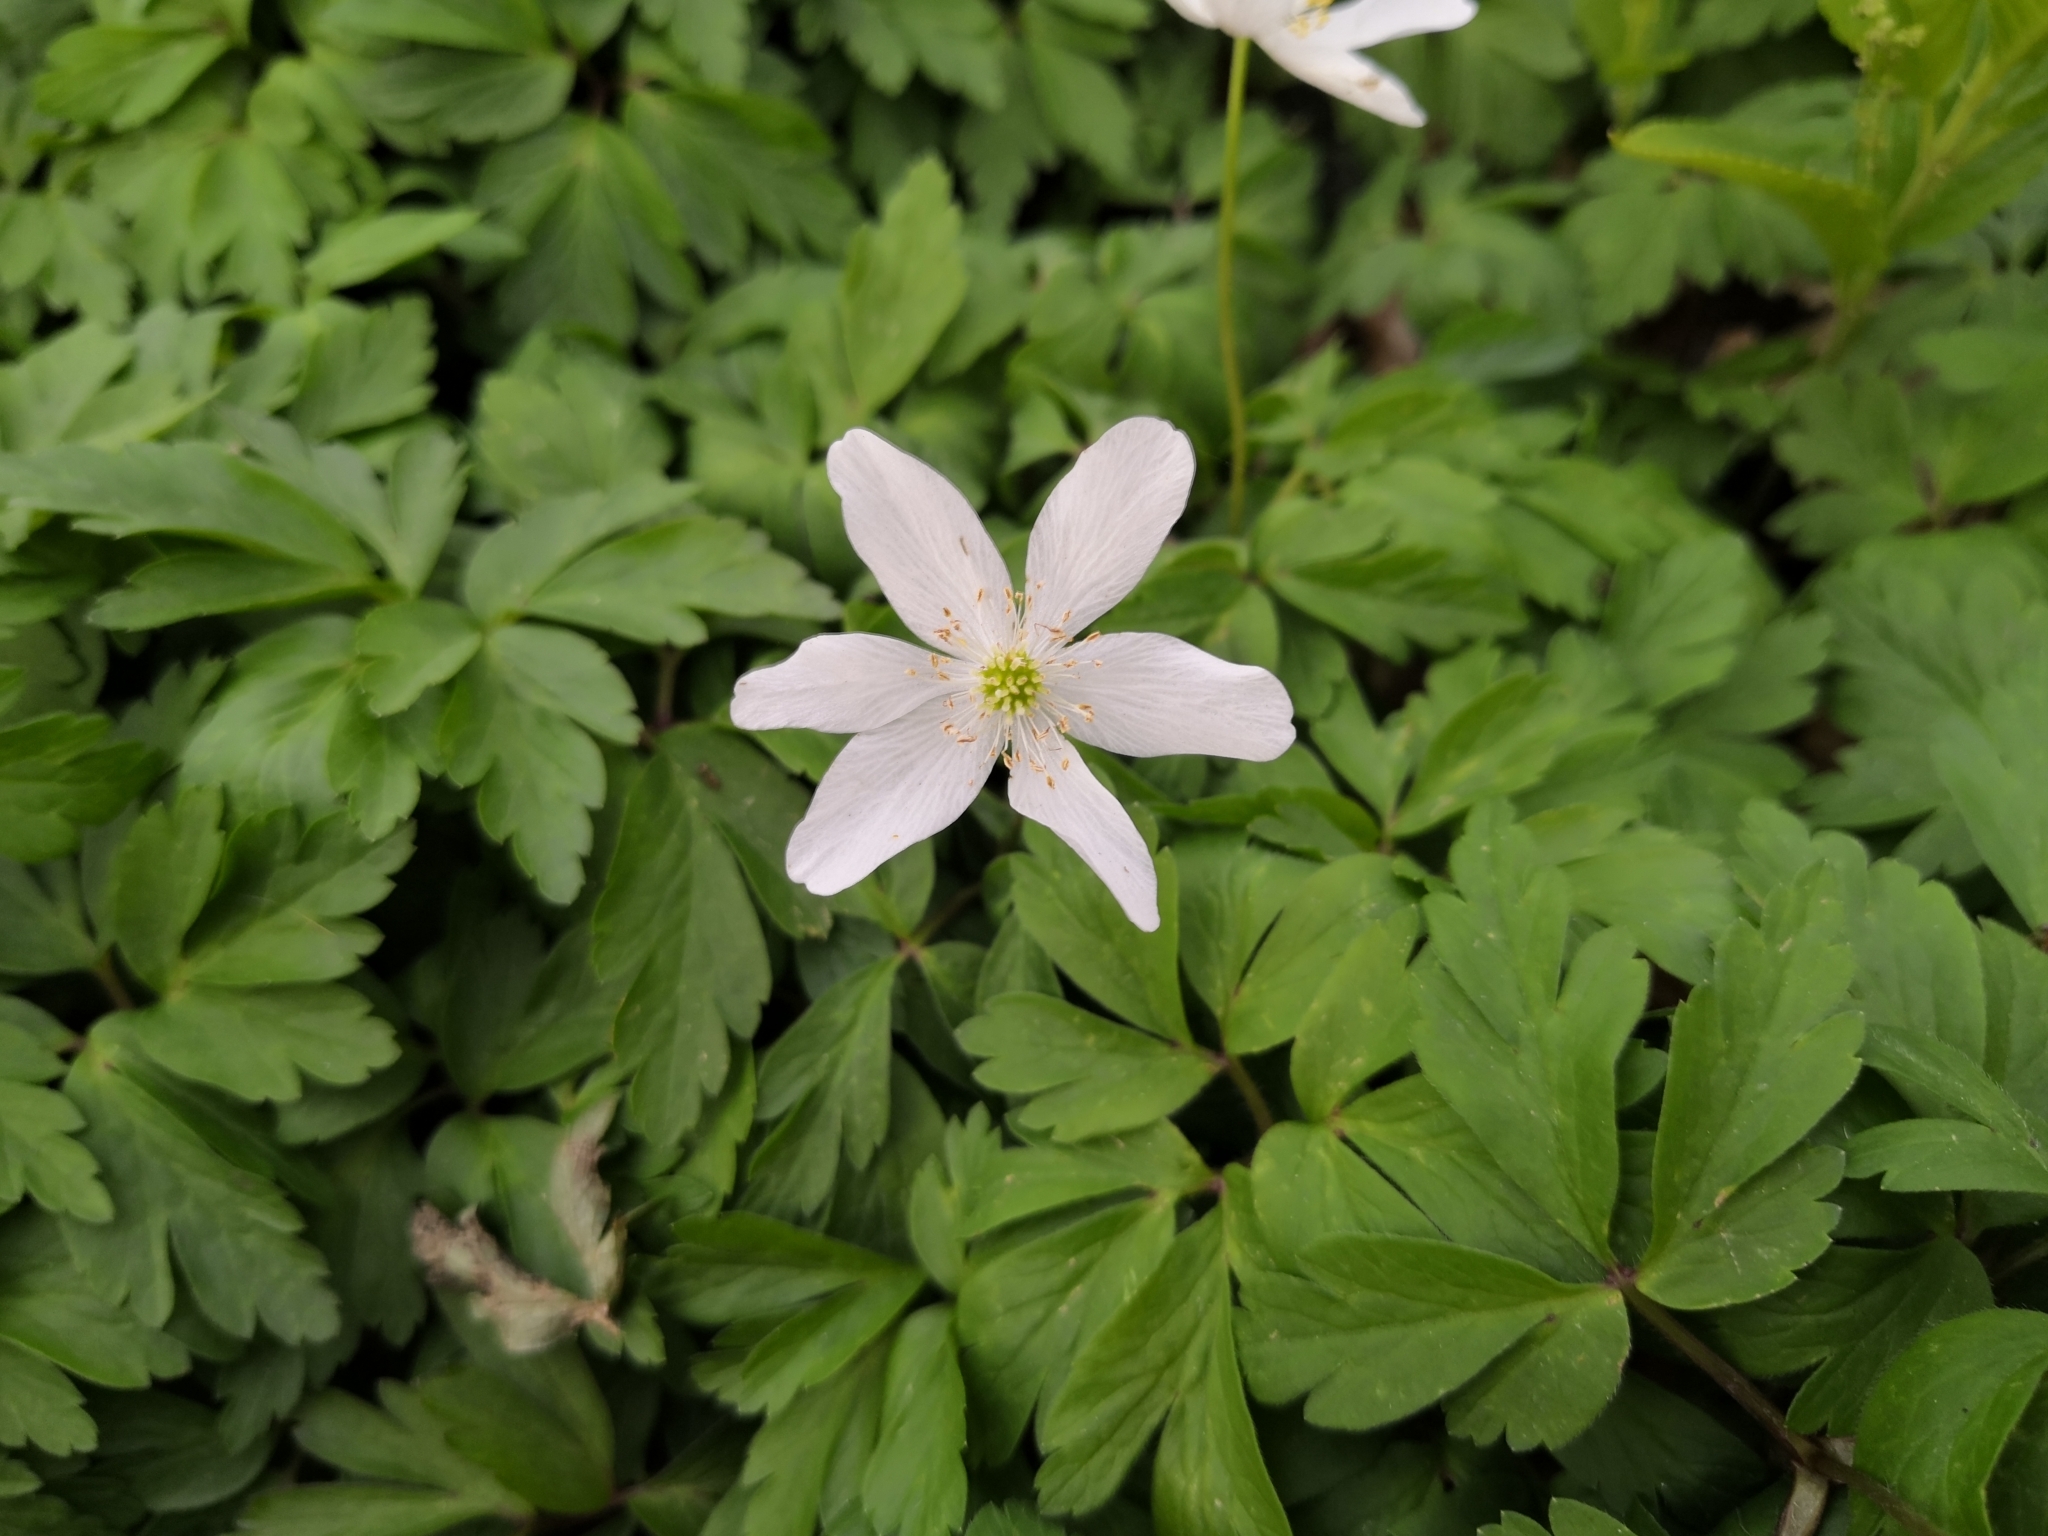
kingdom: Plantae
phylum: Tracheophyta
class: Magnoliopsida
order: Ranunculales
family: Ranunculaceae
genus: Anemone
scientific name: Anemone nemorosa
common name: Wood anemone
